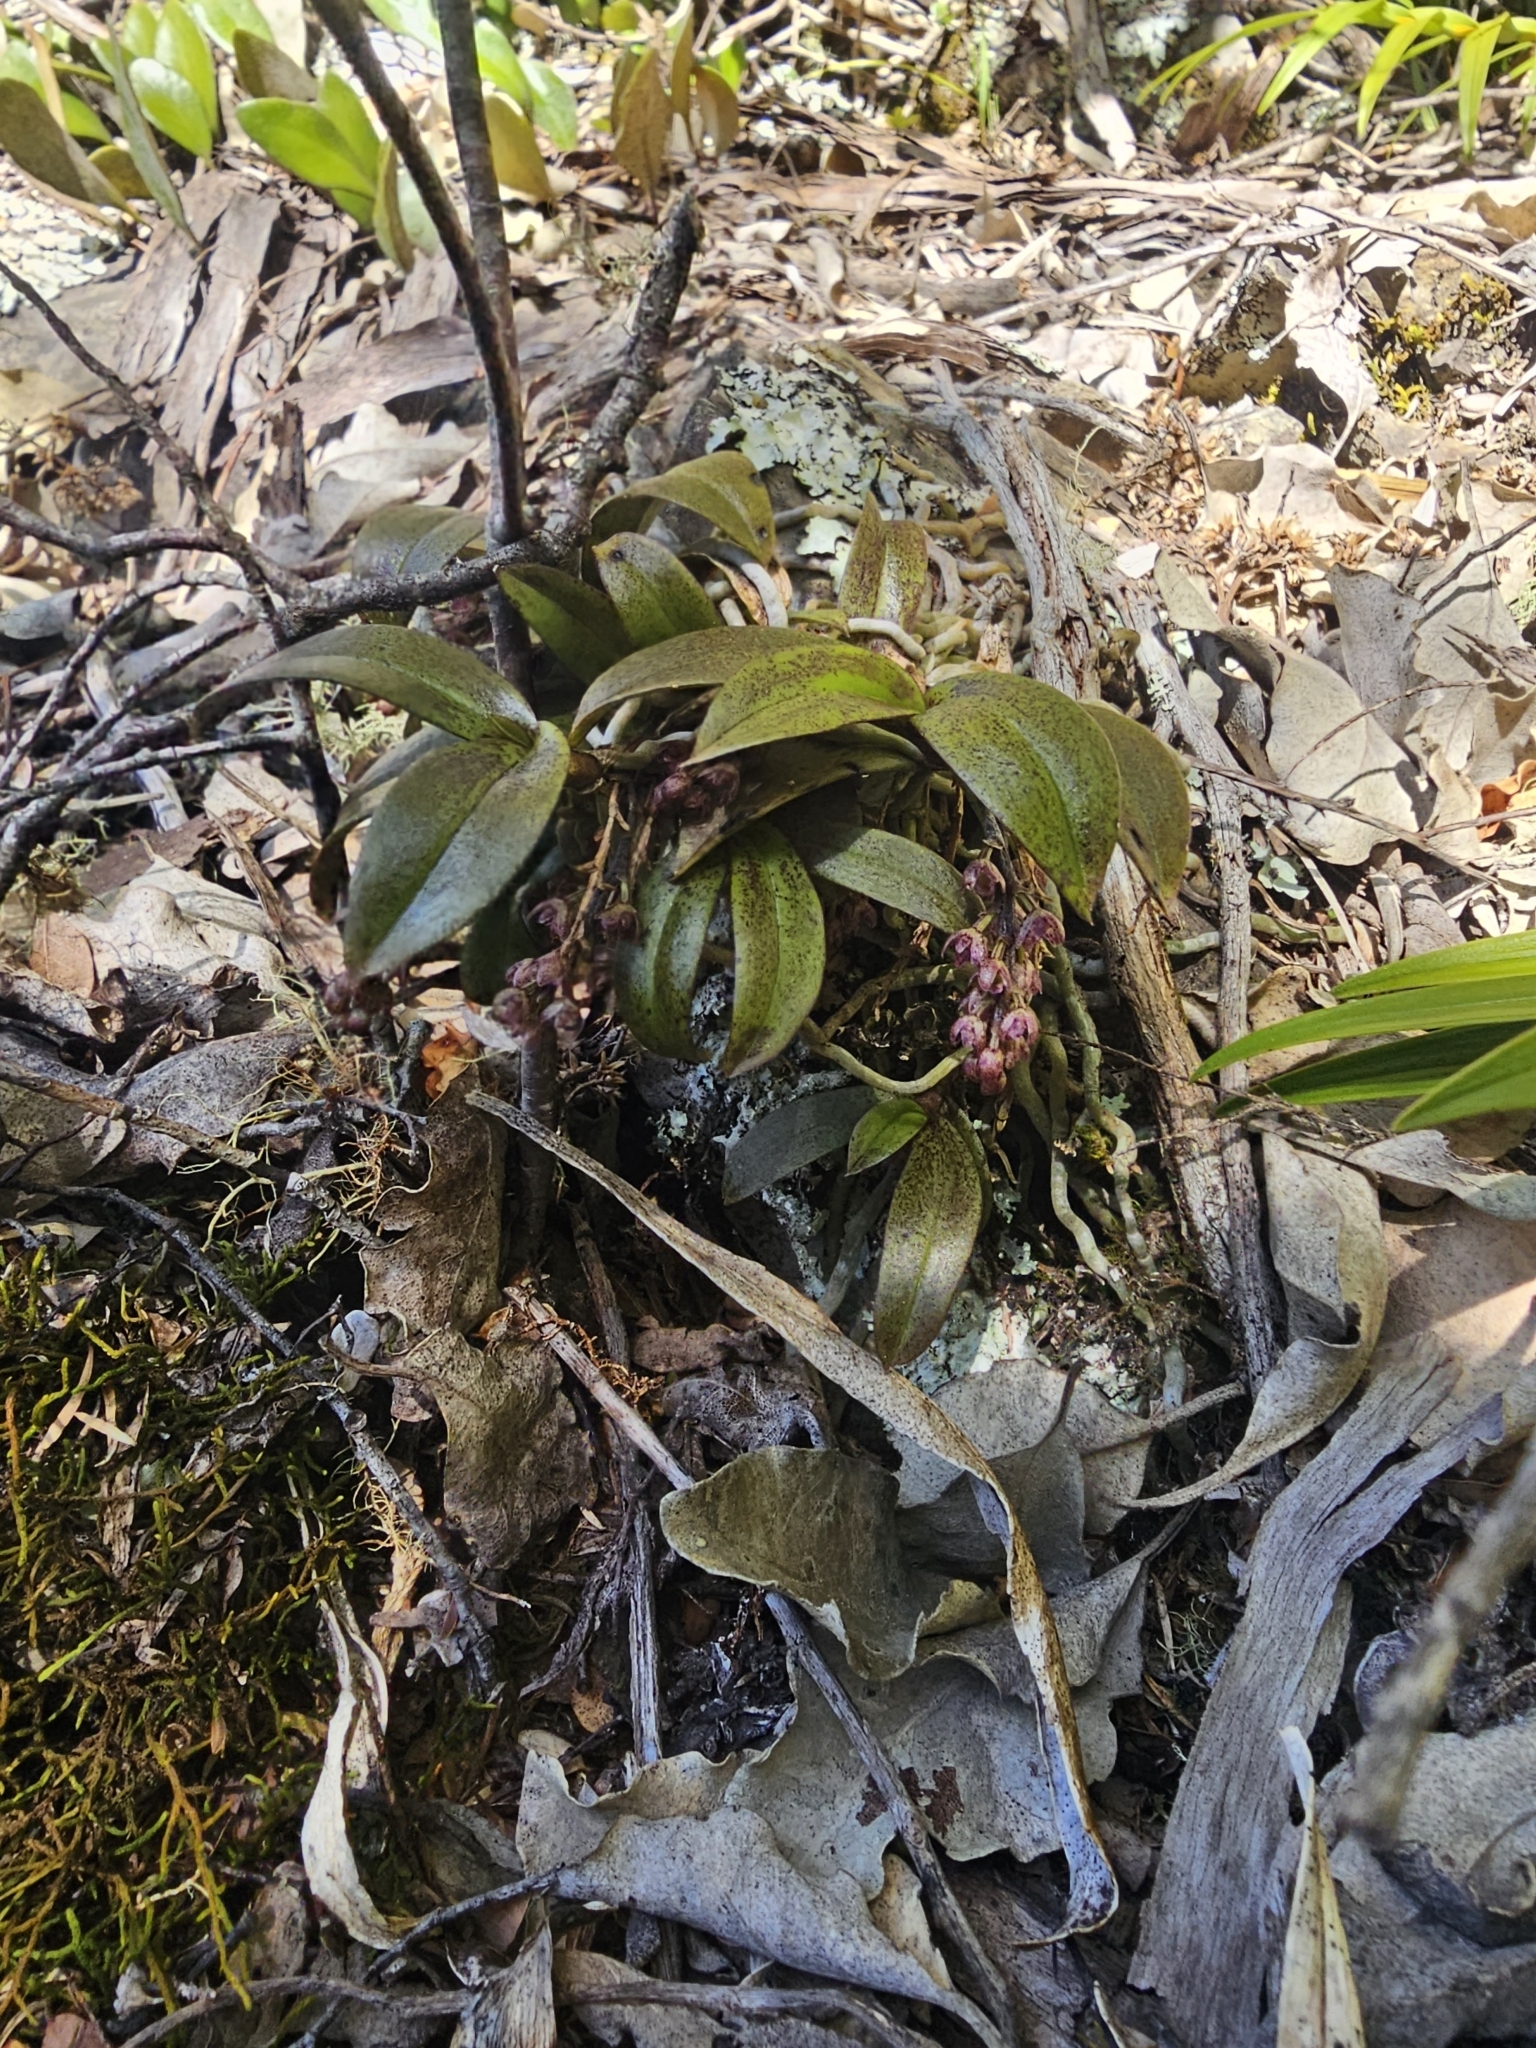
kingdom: Plantae
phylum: Tracheophyta
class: Liliopsida
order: Asparagales
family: Orchidaceae
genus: Drymoanthus
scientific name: Drymoanthus adversus
